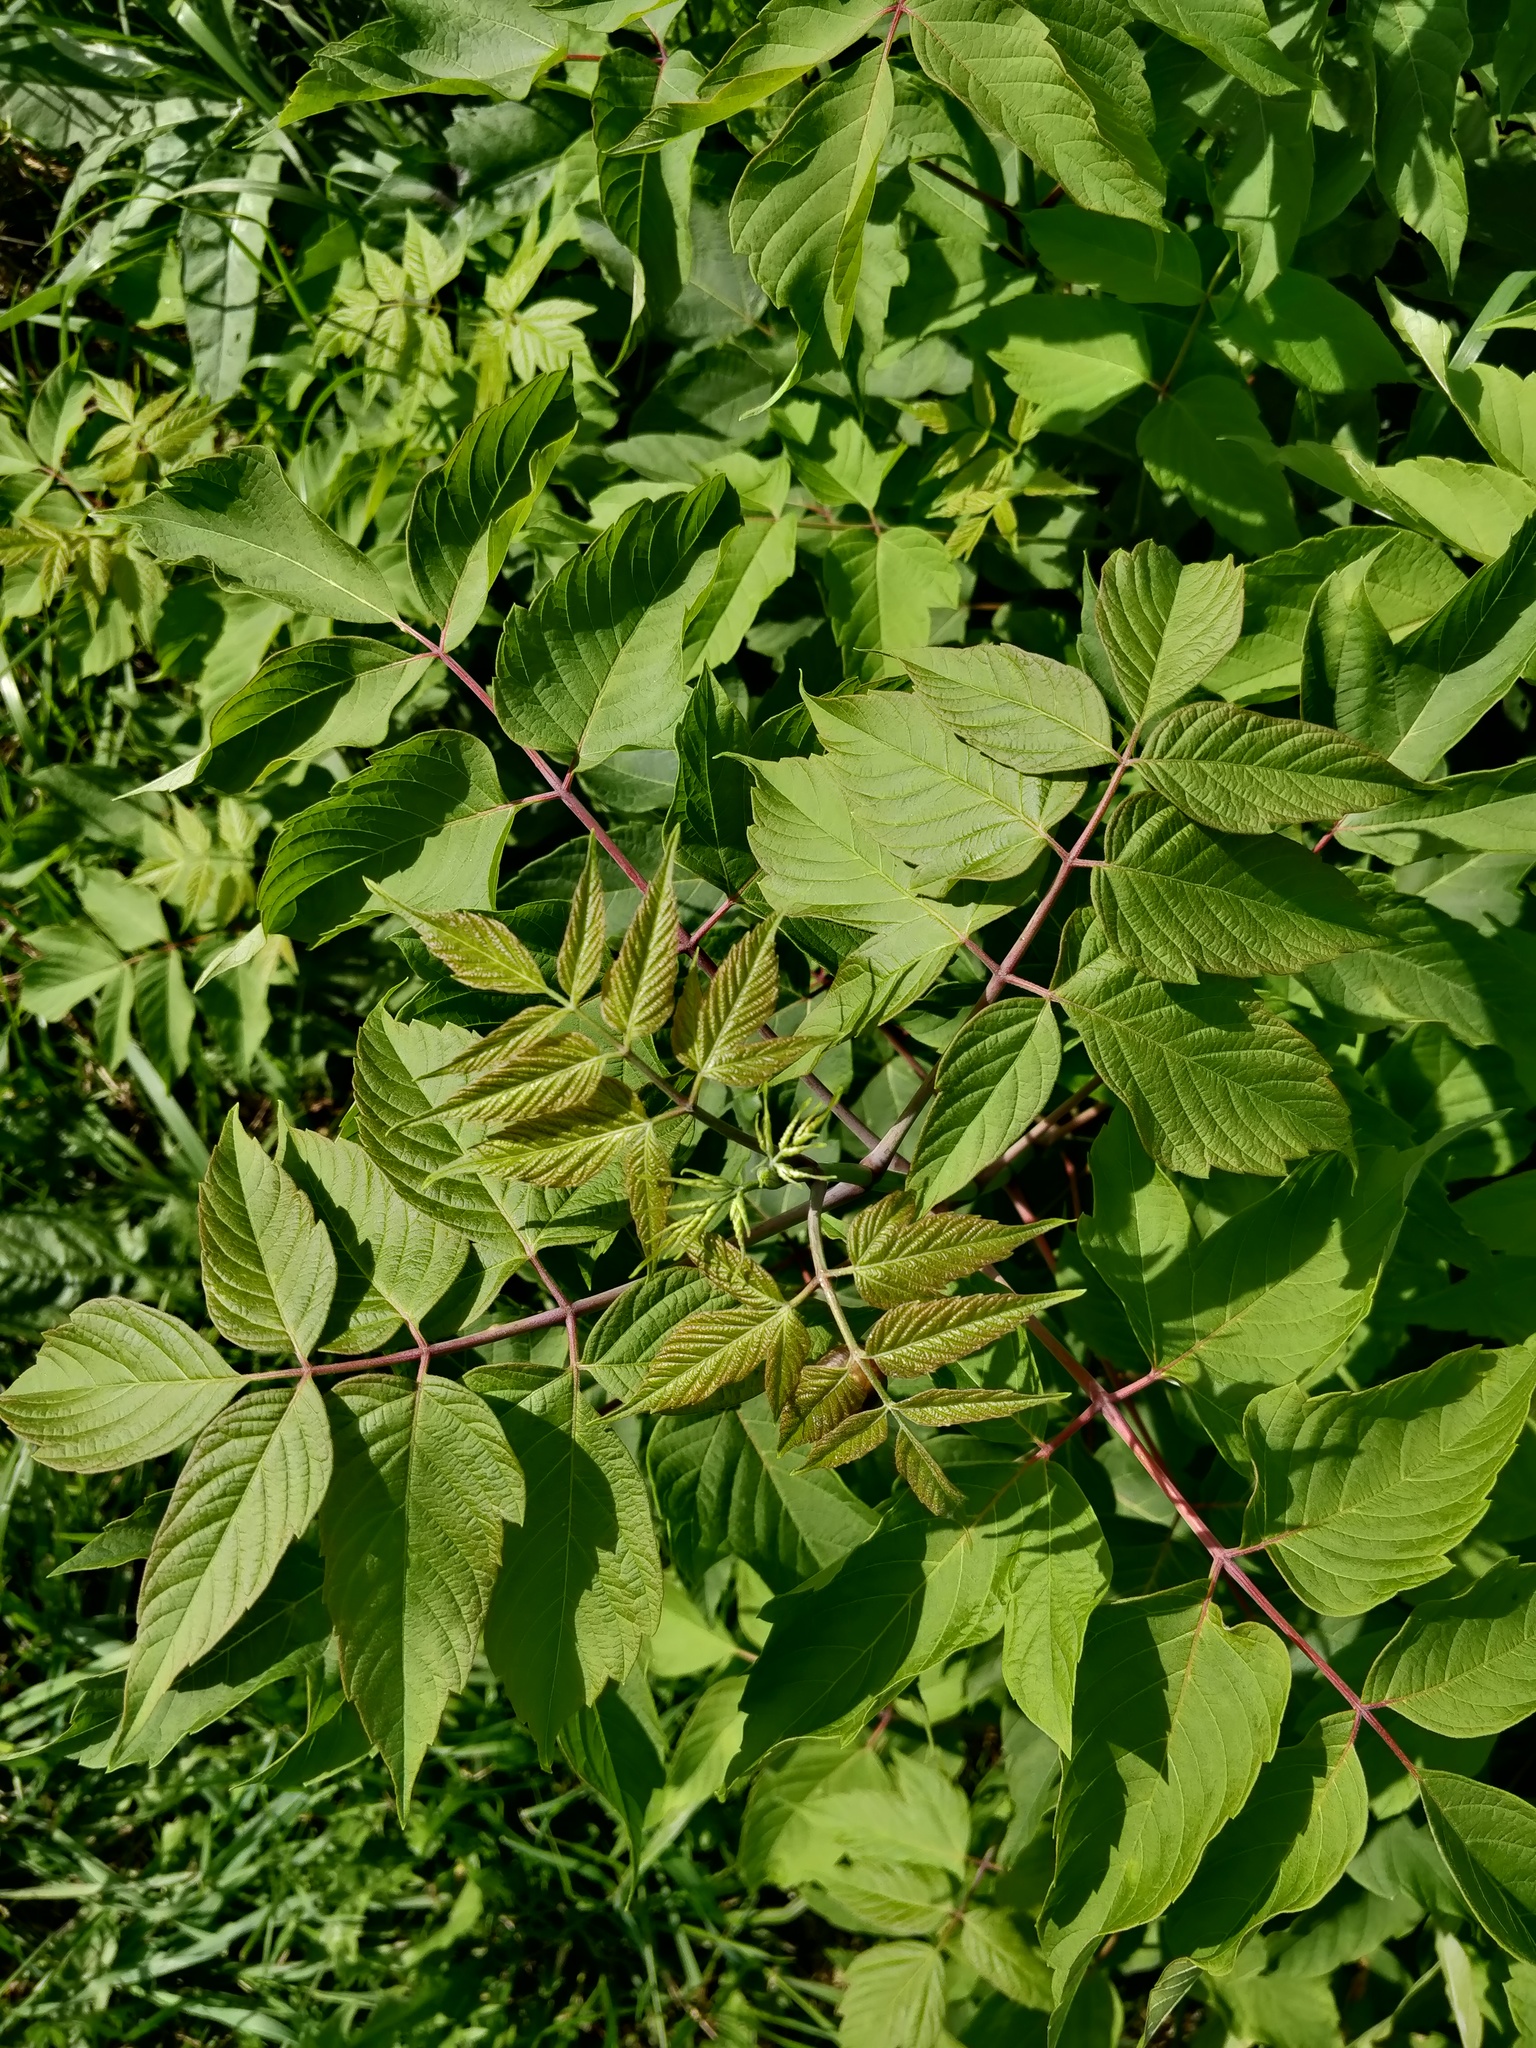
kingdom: Plantae
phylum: Tracheophyta
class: Magnoliopsida
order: Sapindales
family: Sapindaceae
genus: Acer
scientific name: Acer negundo
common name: Ashleaf maple
